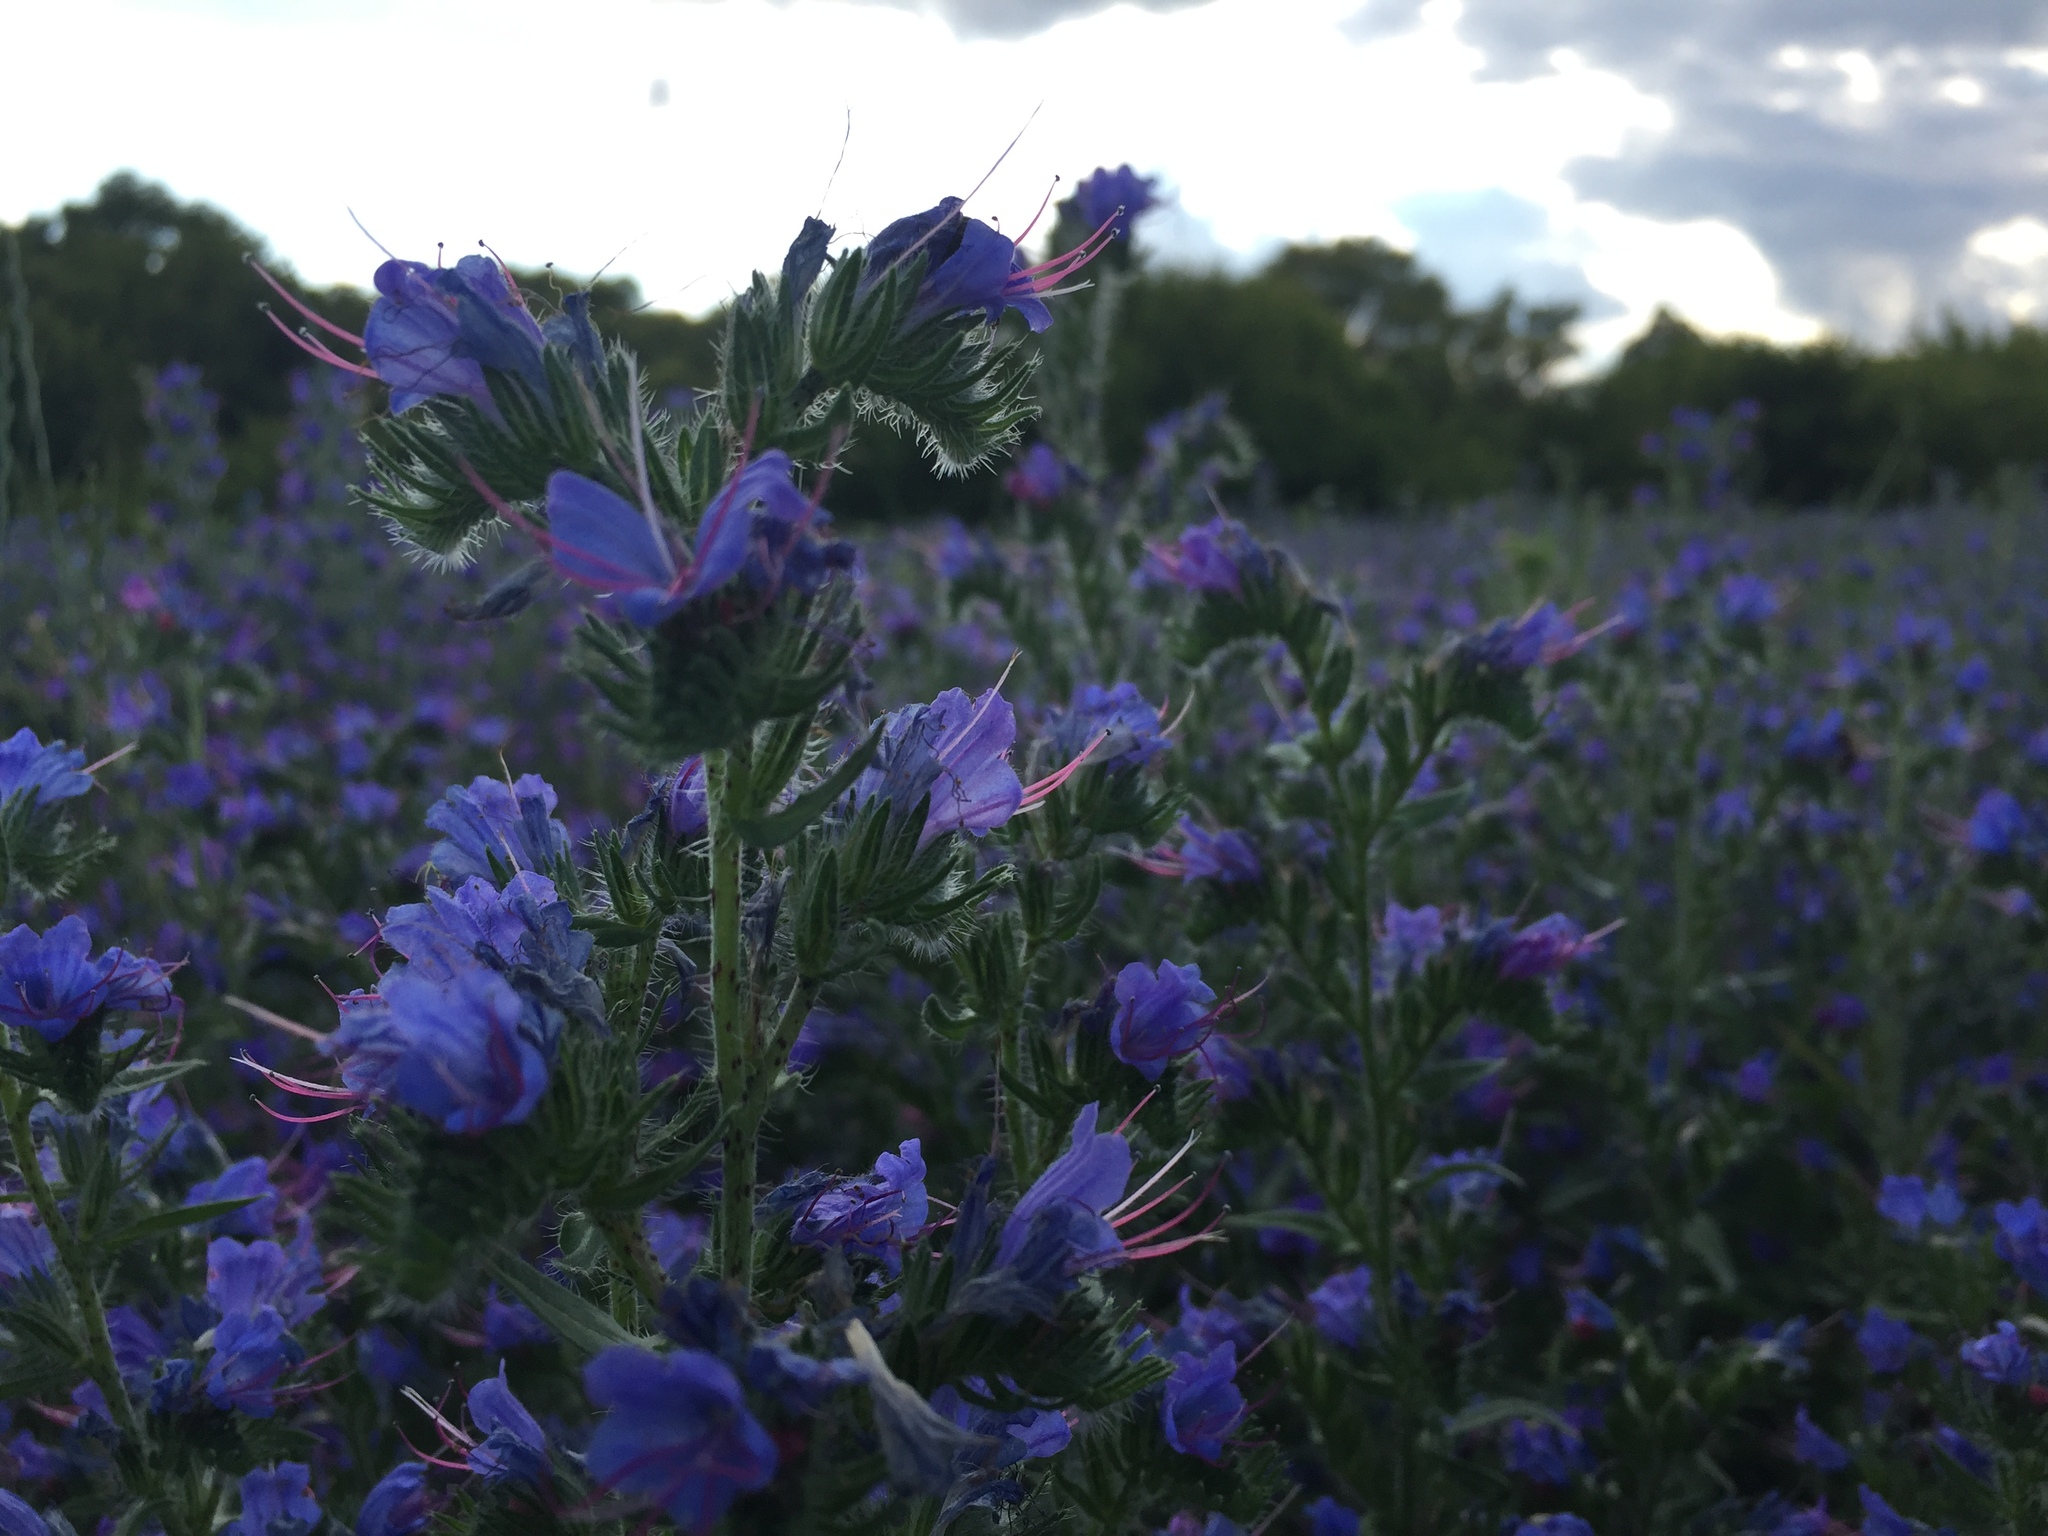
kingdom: Plantae
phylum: Tracheophyta
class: Magnoliopsida
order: Boraginales
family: Boraginaceae
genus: Echium
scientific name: Echium vulgare
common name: Common viper's bugloss
